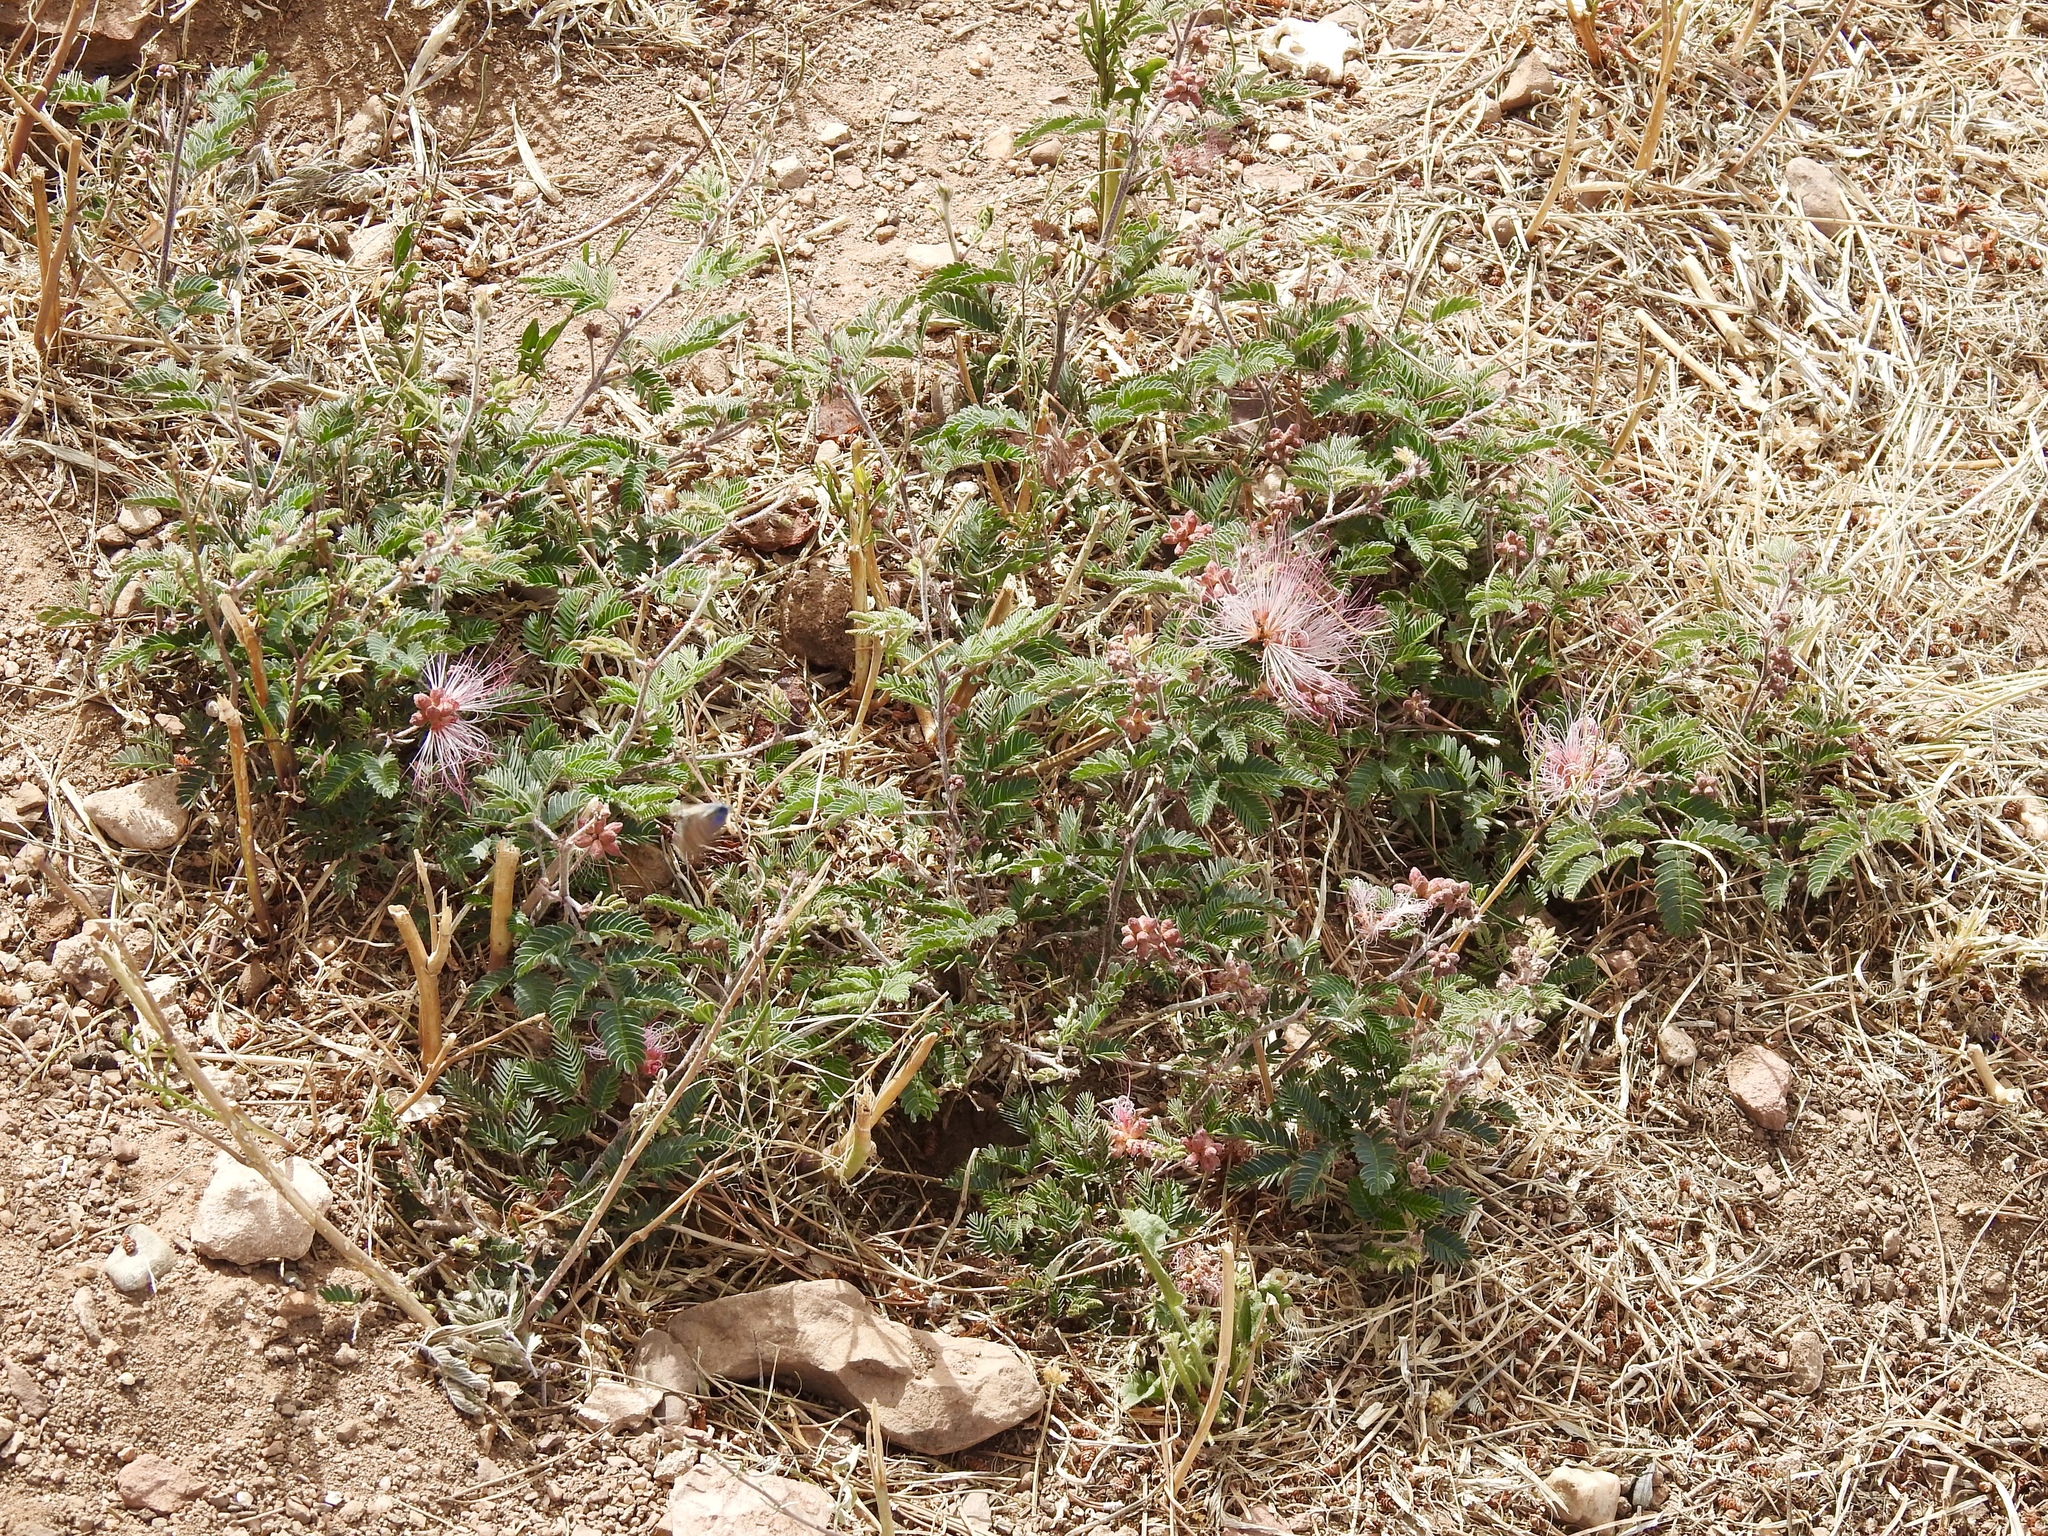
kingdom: Plantae
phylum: Tracheophyta
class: Magnoliopsida
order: Fabales
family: Fabaceae
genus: Calliandra
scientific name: Calliandra eriophylla
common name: Fairy-duster
